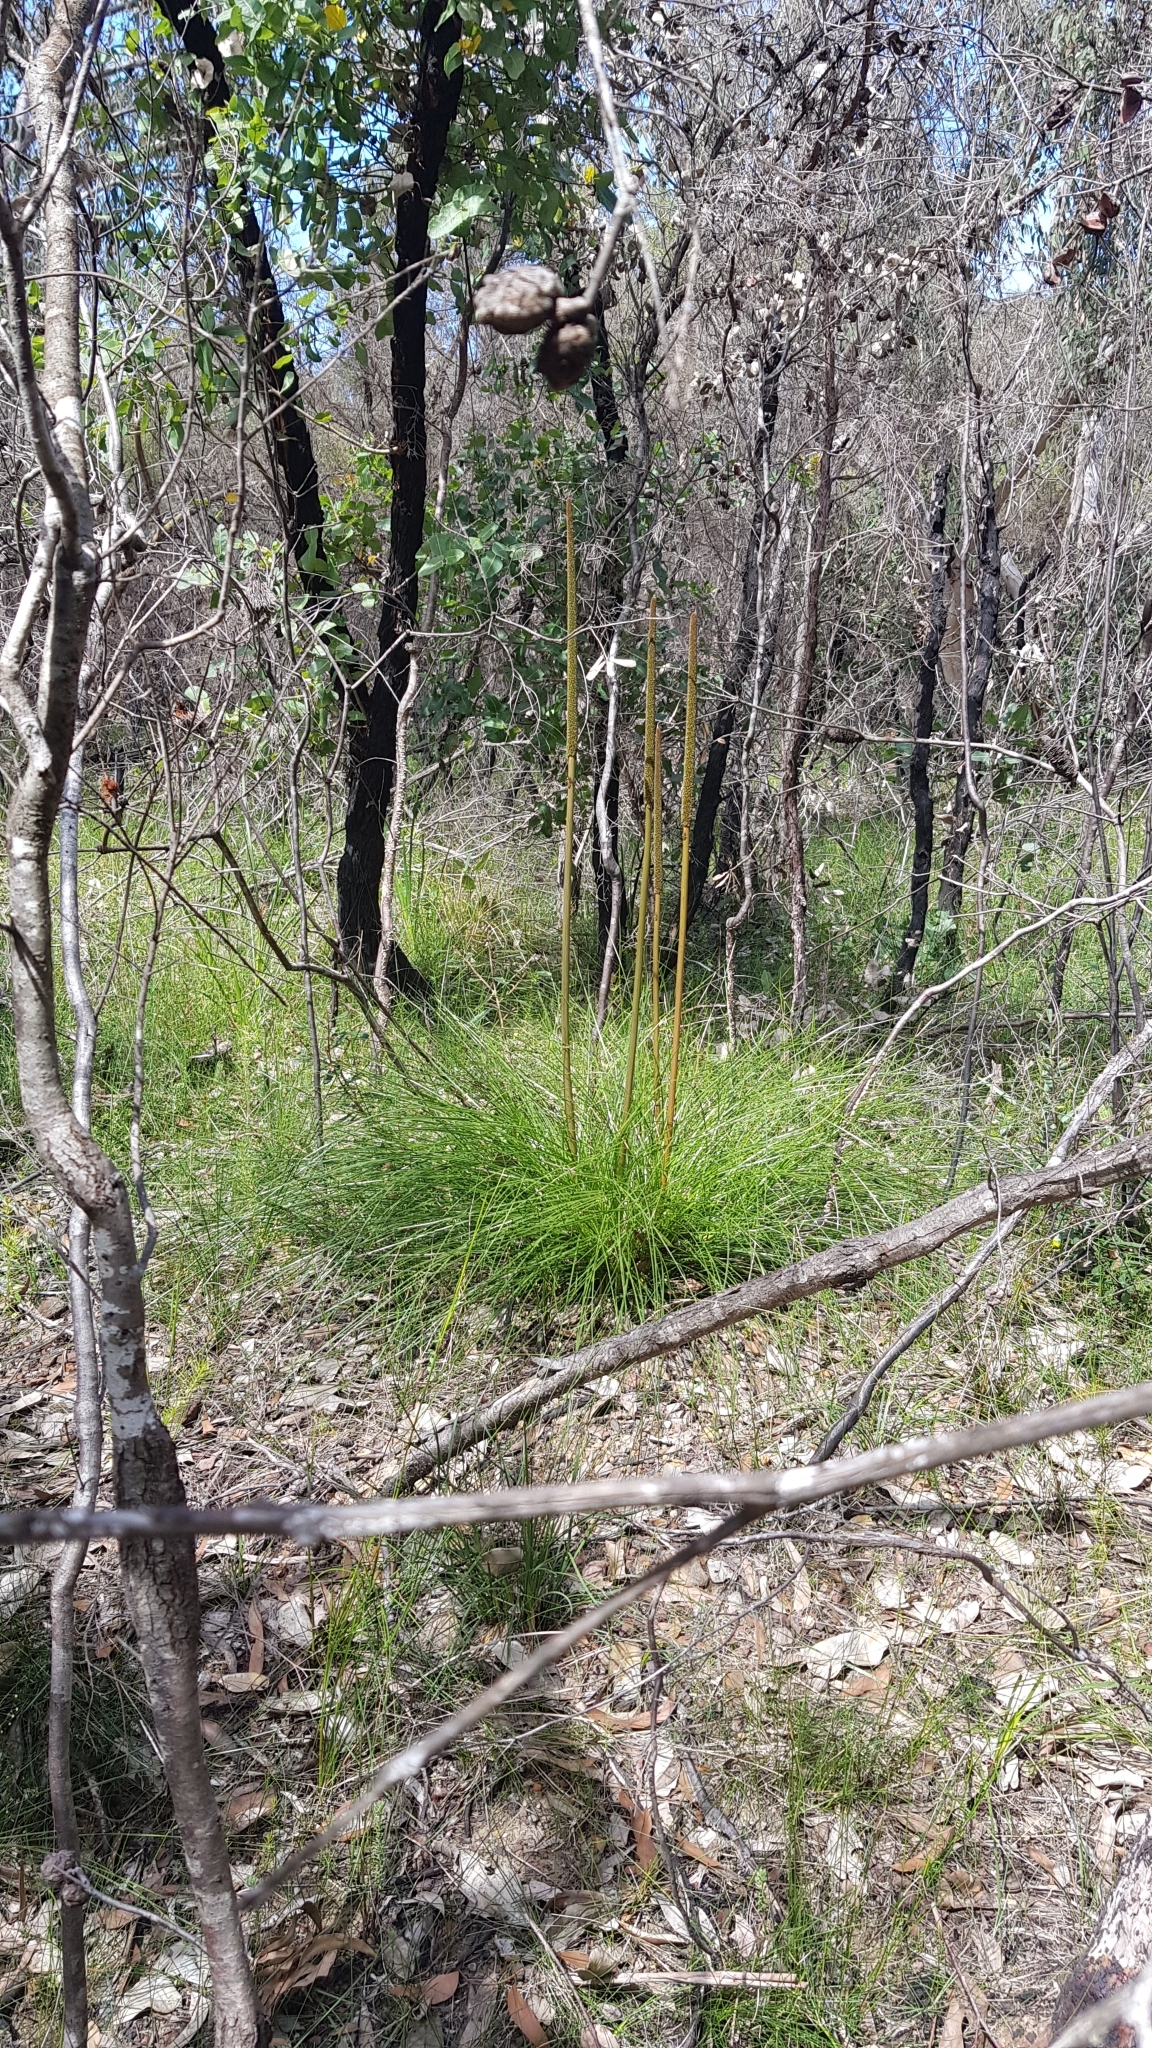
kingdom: Plantae
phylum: Tracheophyta
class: Liliopsida
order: Asparagales
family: Asphodelaceae
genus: Xanthorrhoea
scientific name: Xanthorrhoea minor
